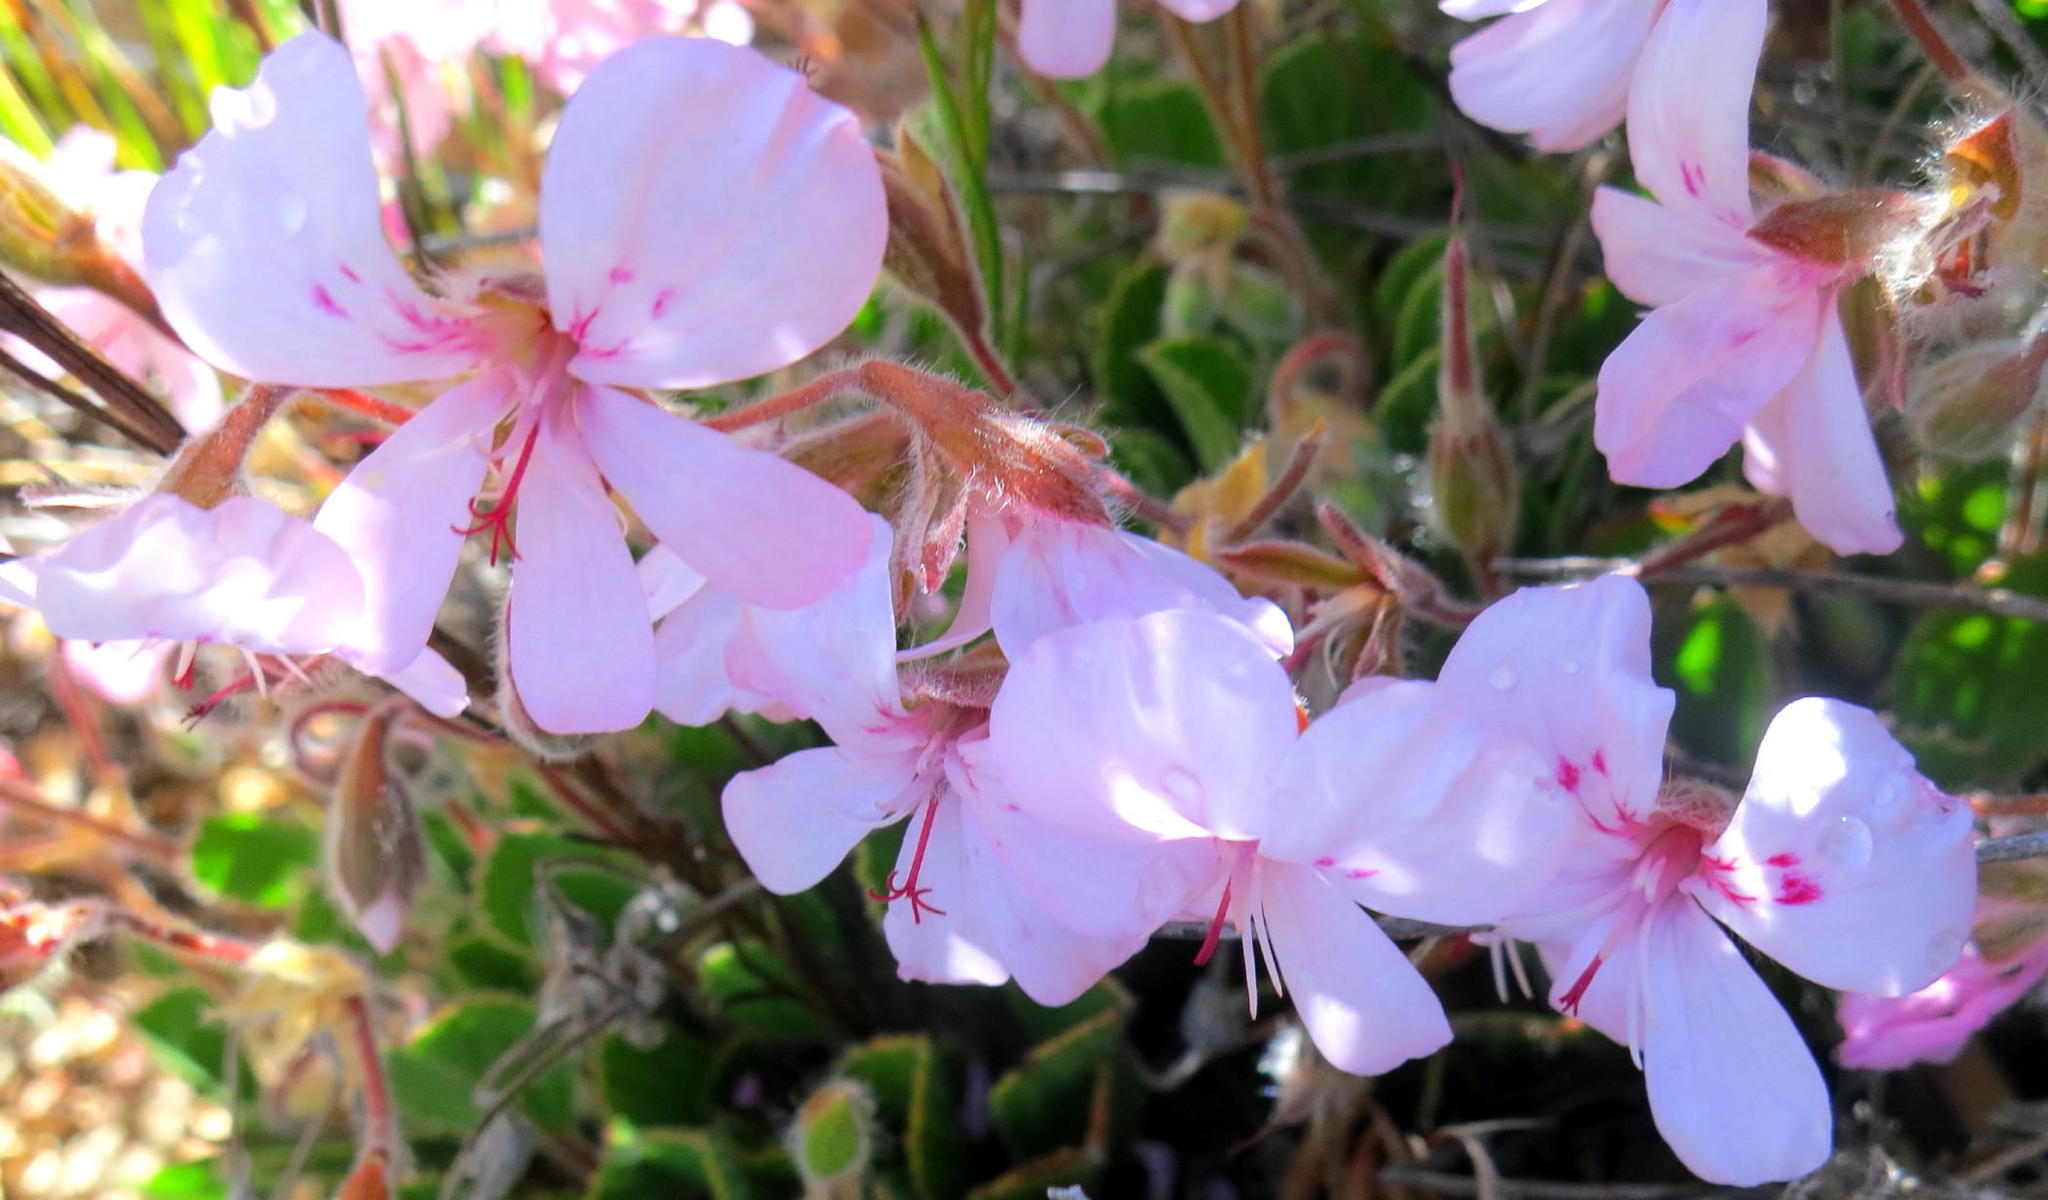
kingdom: Plantae
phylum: Tracheophyta
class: Magnoliopsida
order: Geraniales
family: Geraniaceae
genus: Pelargonium
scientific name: Pelargonium ovale
